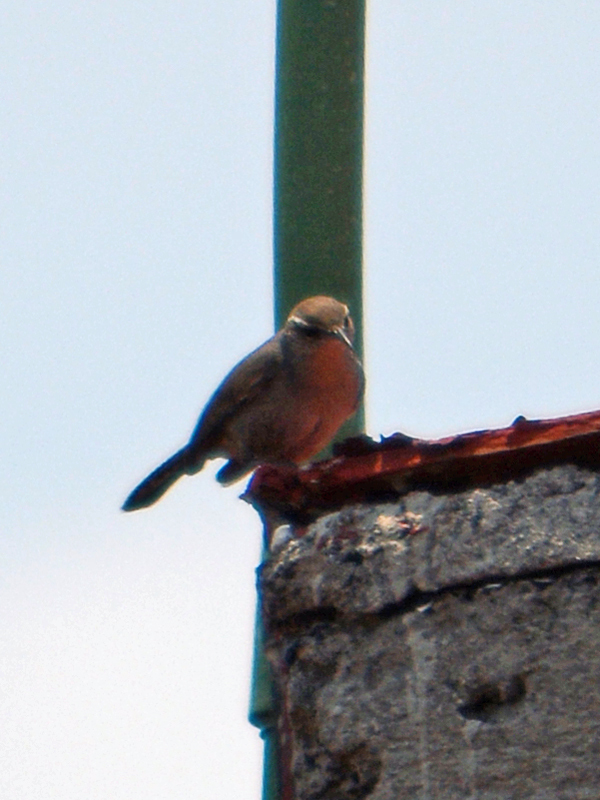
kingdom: Animalia
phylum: Chordata
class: Aves
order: Passeriformes
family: Troglodytidae
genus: Thryomanes
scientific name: Thryomanes bewickii
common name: Bewick's wren
